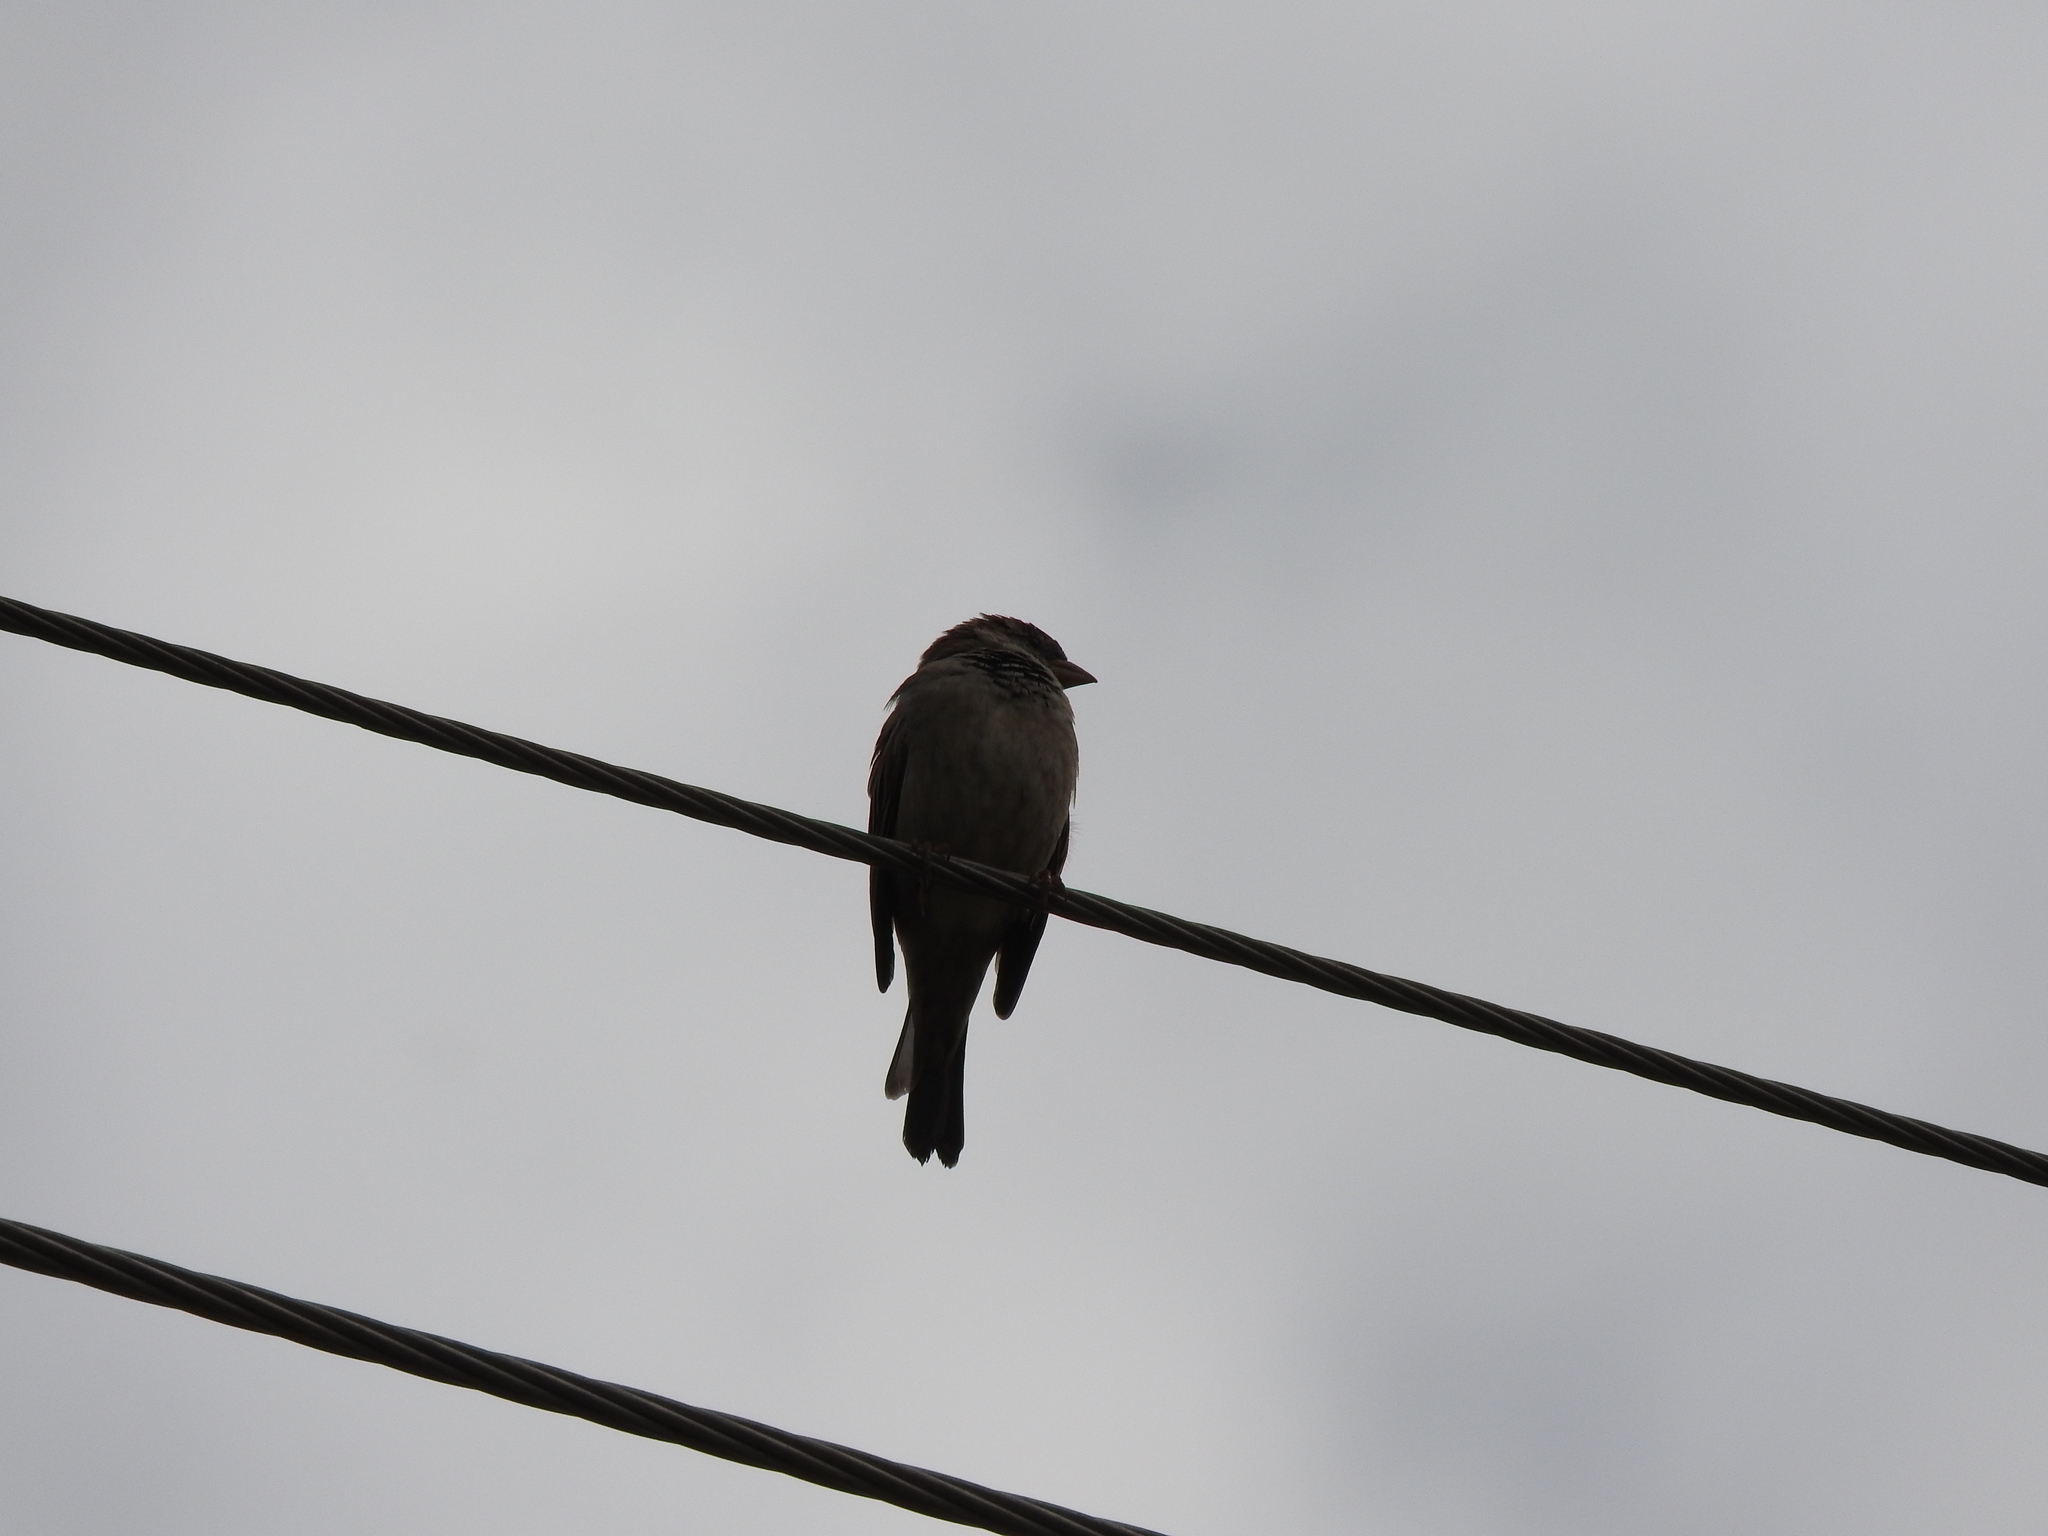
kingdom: Animalia
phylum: Chordata
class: Aves
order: Passeriformes
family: Passeridae
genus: Passer
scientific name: Passer domesticus
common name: House sparrow
